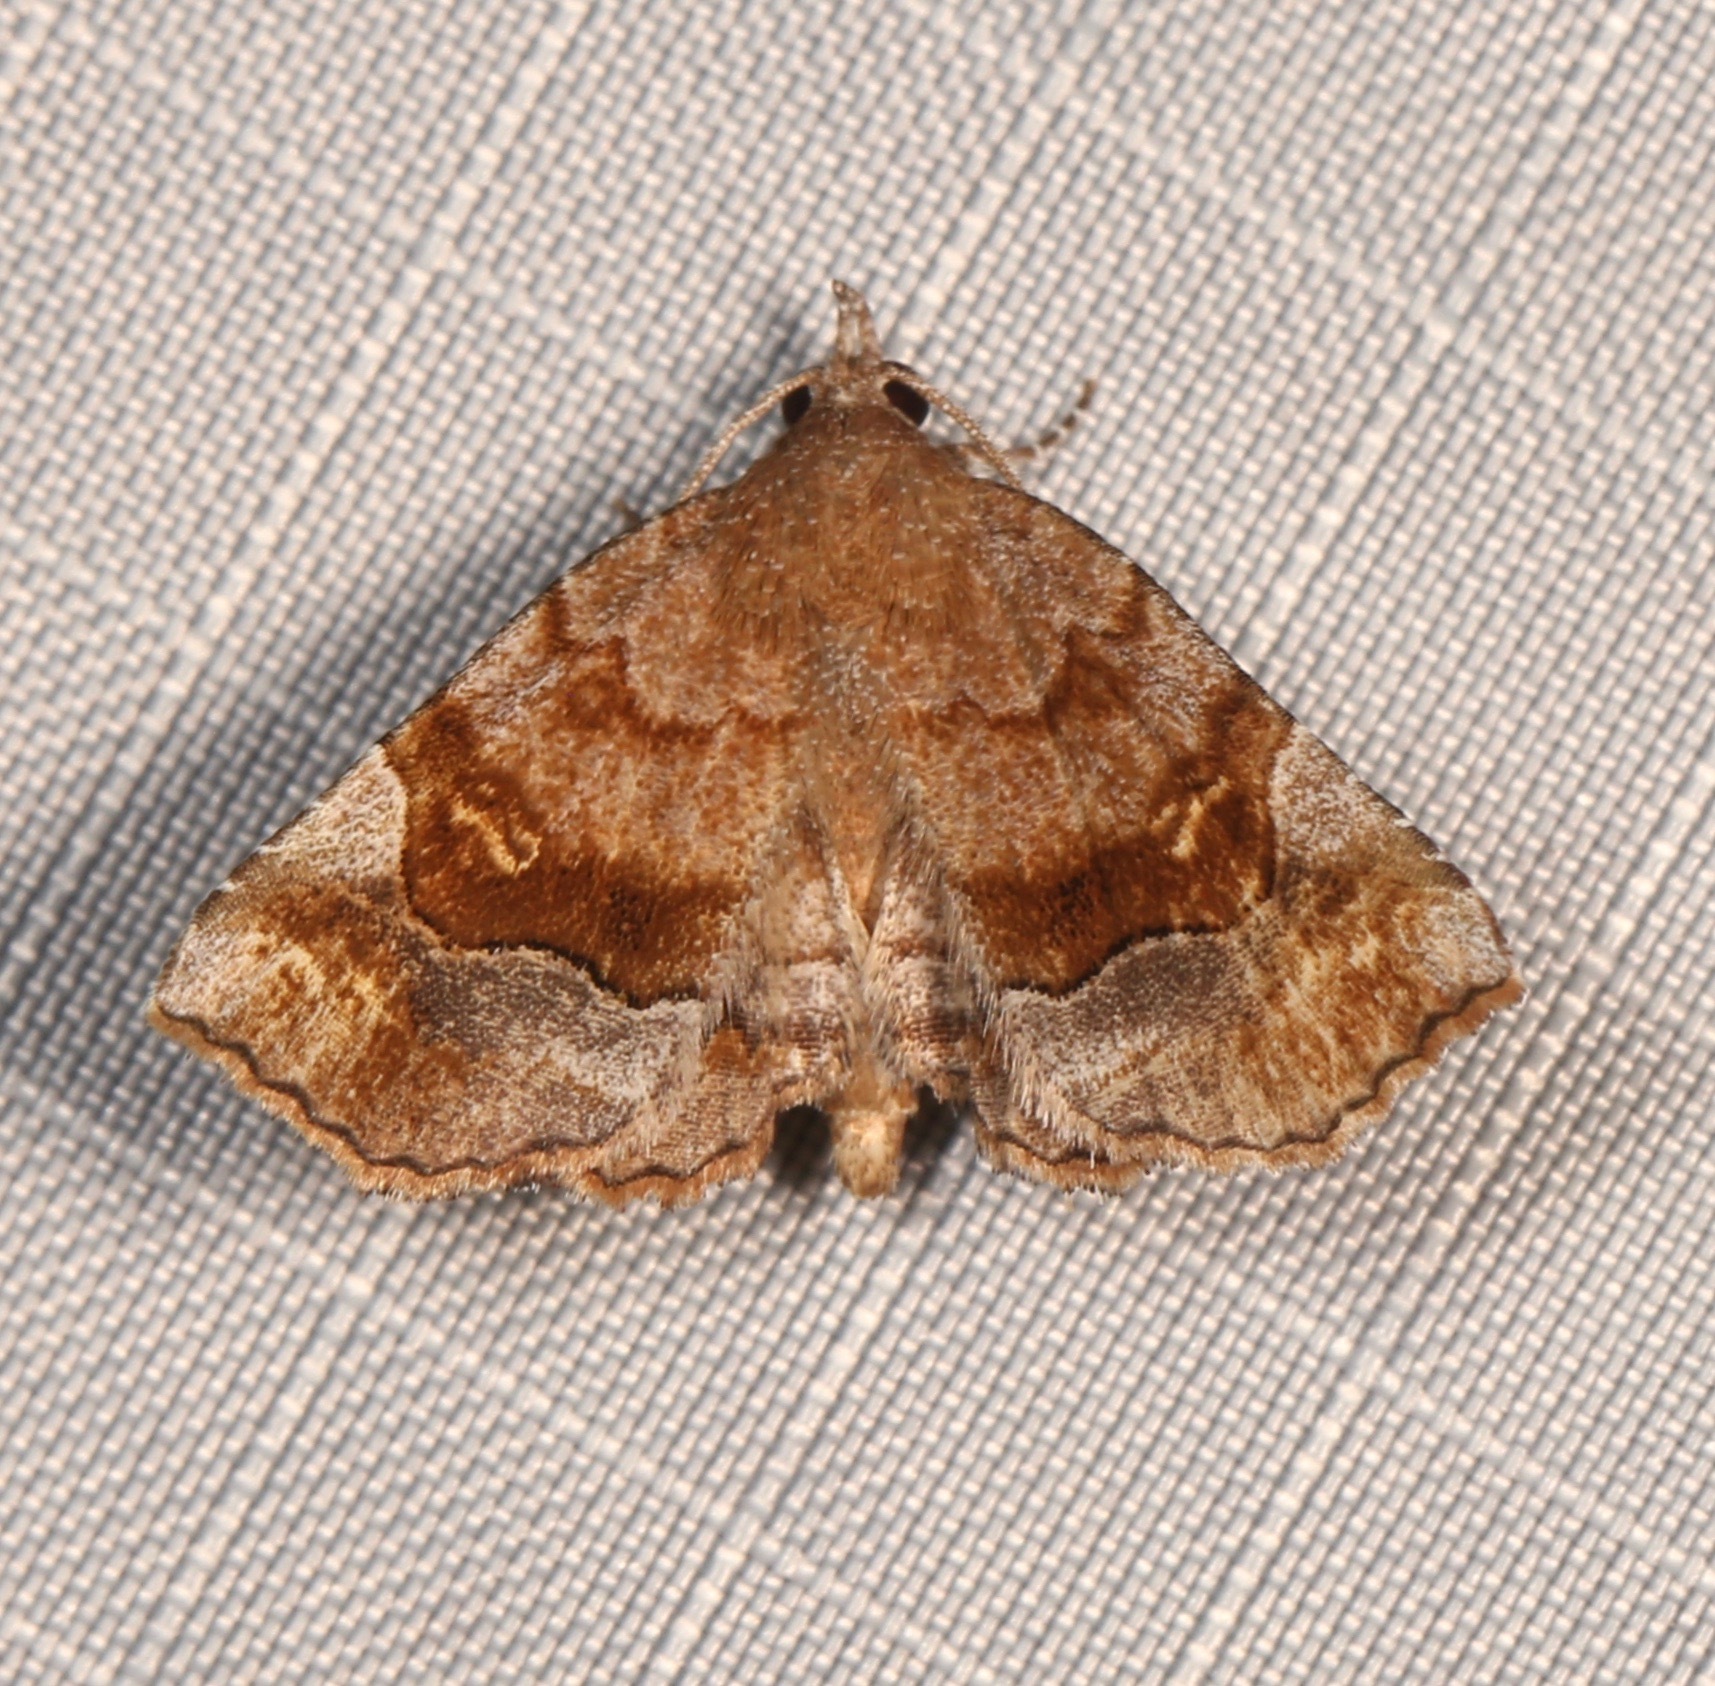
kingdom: Animalia
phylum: Arthropoda
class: Insecta
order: Lepidoptera
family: Erebidae
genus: Pangrapta
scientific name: Pangrapta decoralis
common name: Decorated owlet
